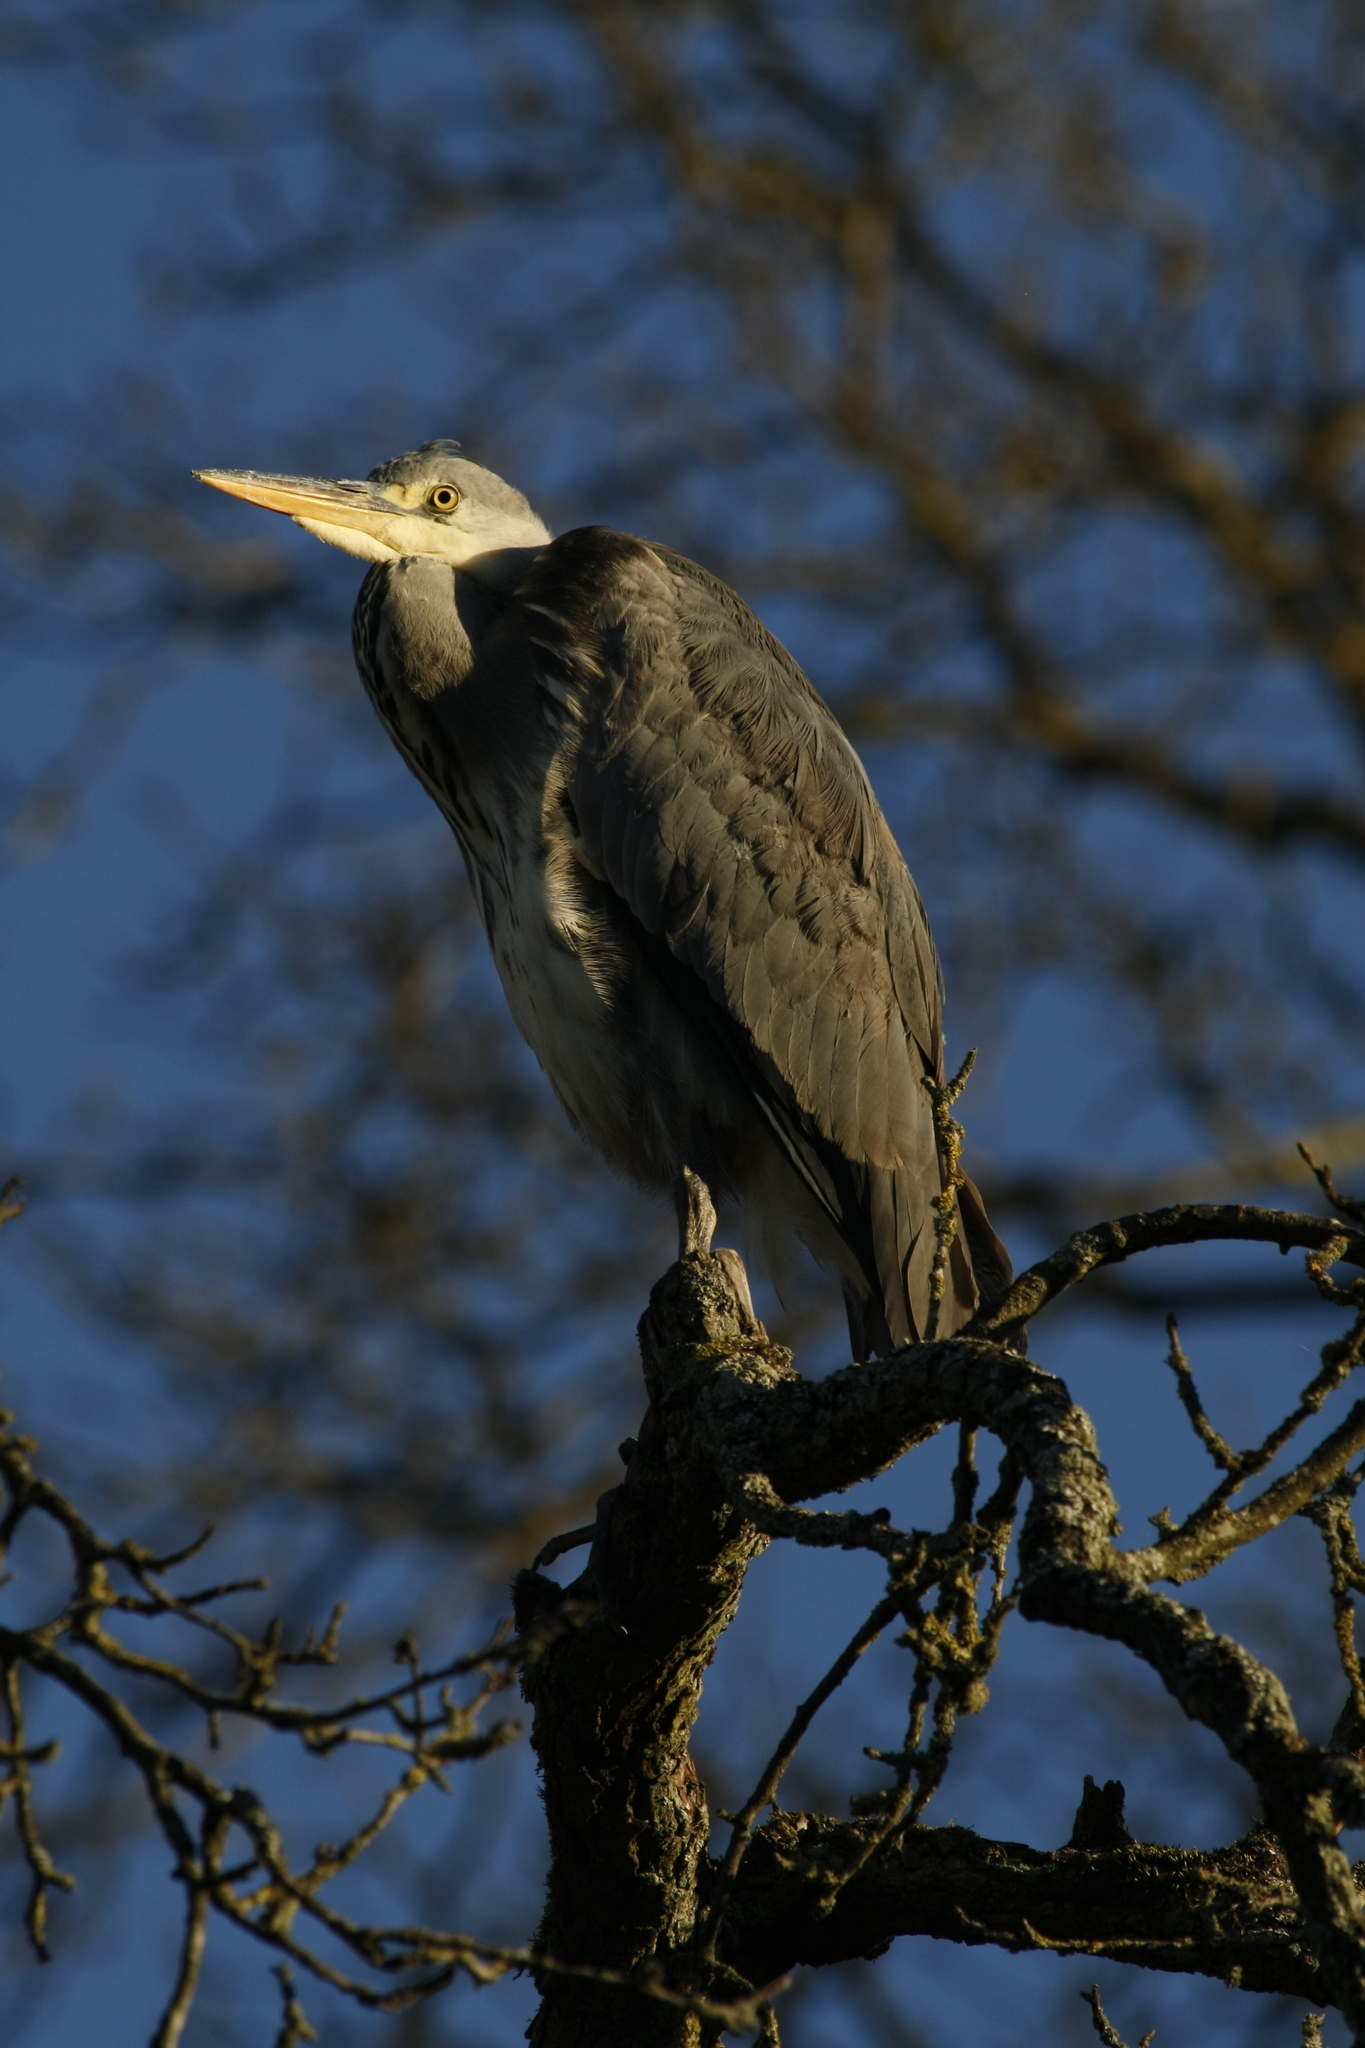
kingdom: Animalia
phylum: Chordata
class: Aves
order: Pelecaniformes
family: Ardeidae
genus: Ardea
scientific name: Ardea cinerea
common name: Grey heron
